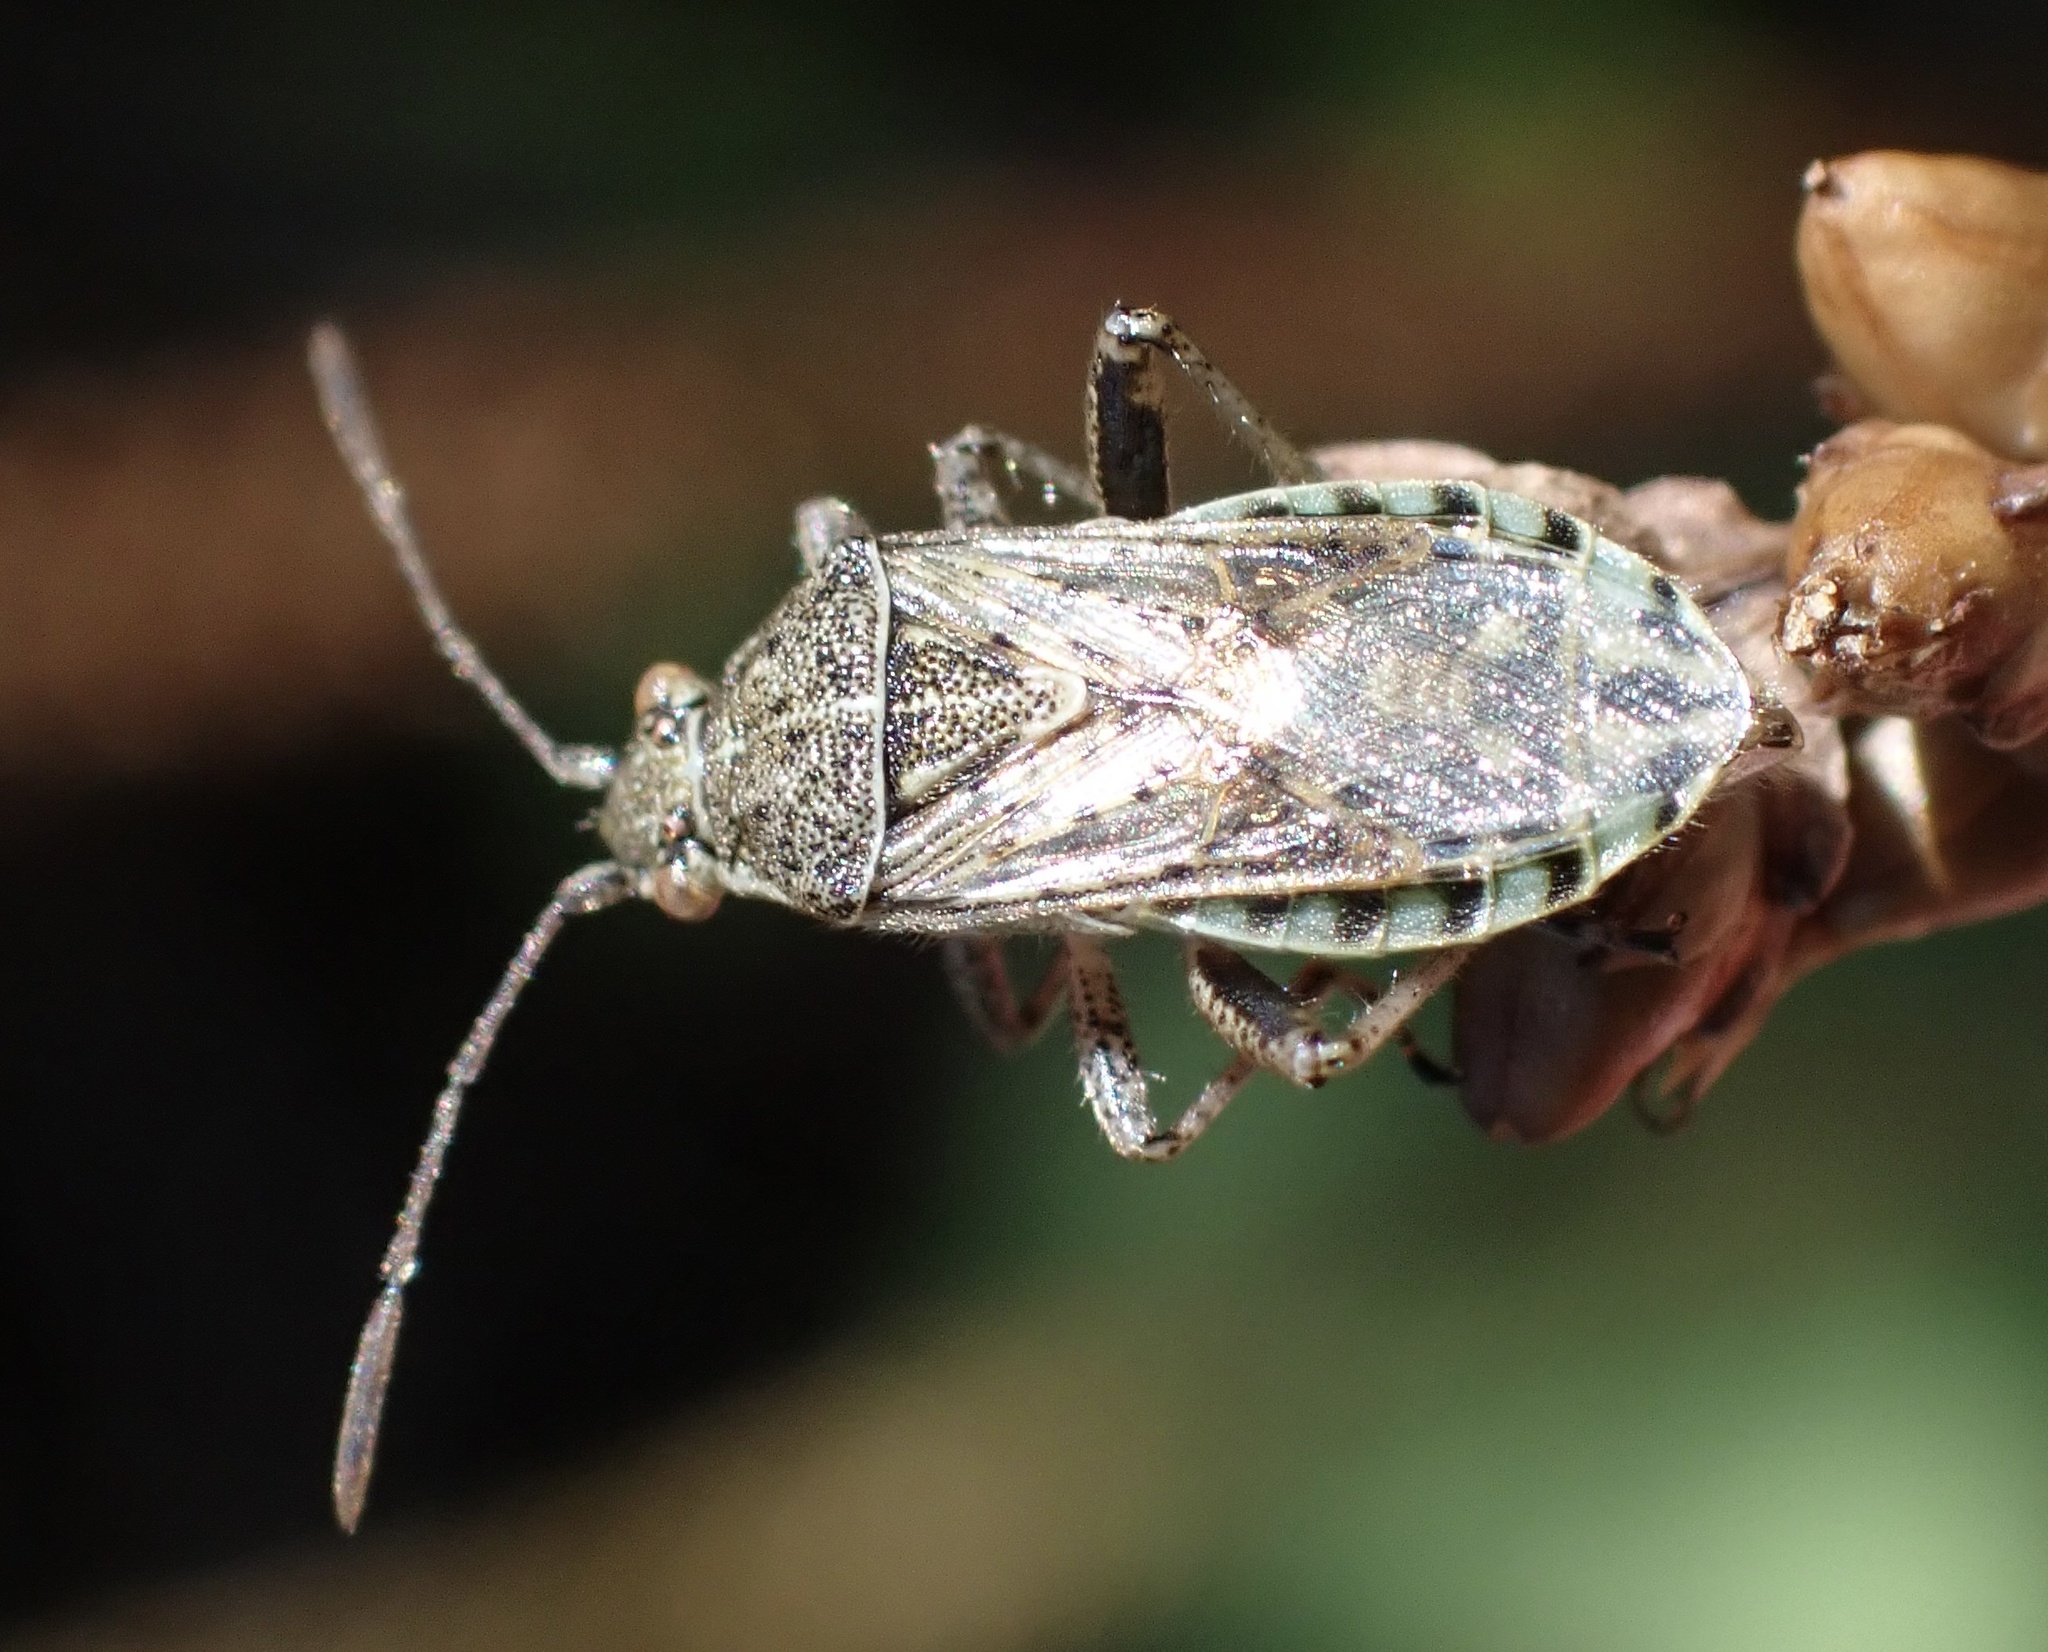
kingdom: Animalia
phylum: Arthropoda
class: Insecta
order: Hemiptera
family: Rhopalidae
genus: Stictopleurus
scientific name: Stictopleurus punctatonervosus
